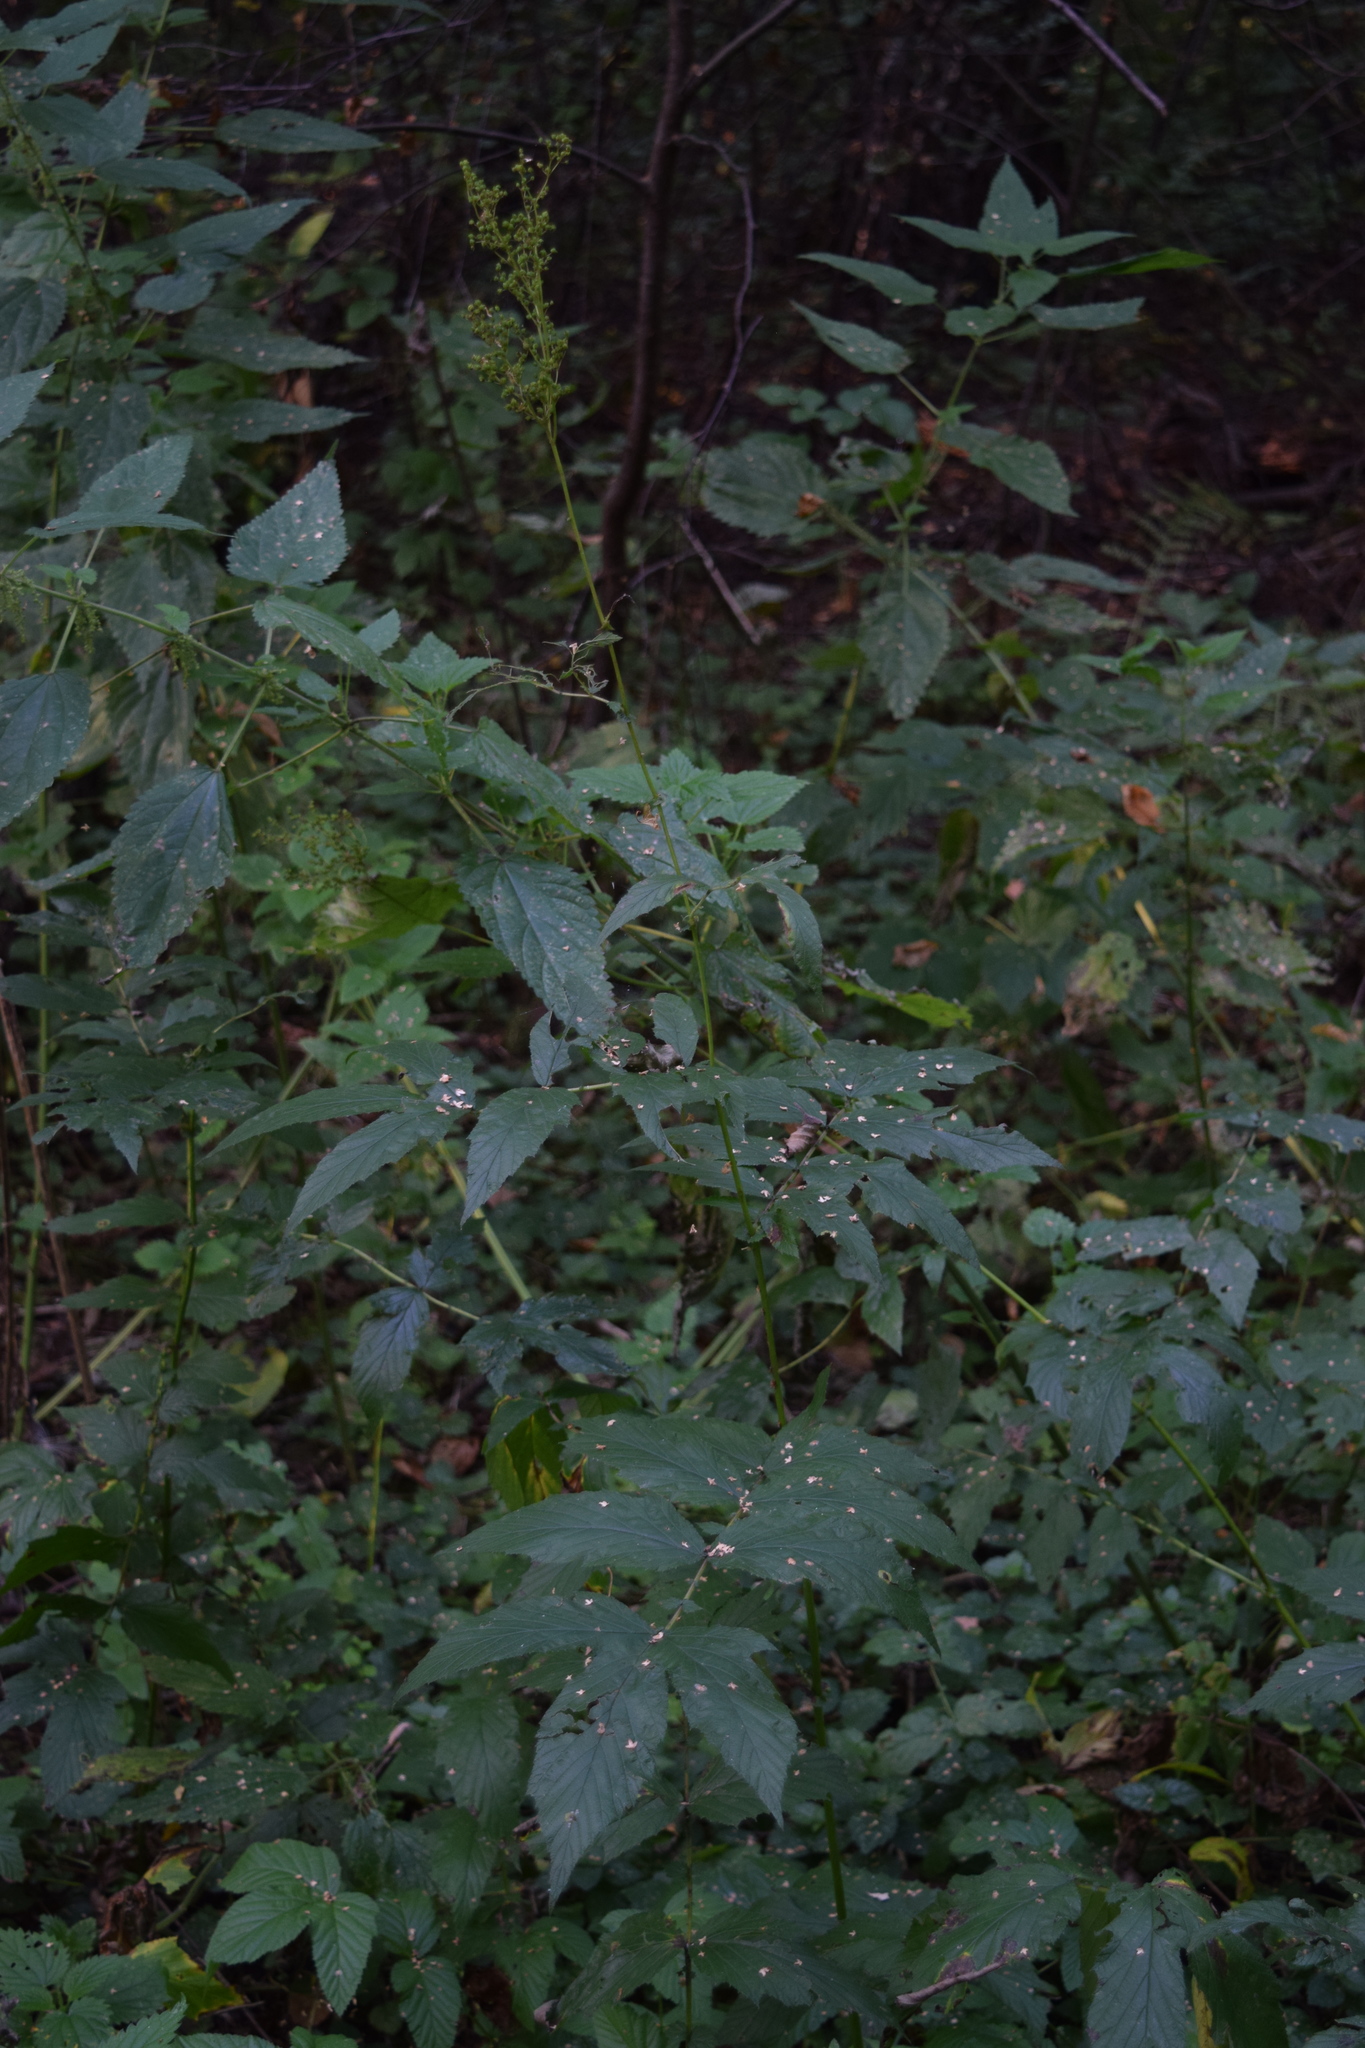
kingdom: Plantae
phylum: Tracheophyta
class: Magnoliopsida
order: Rosales
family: Rosaceae
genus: Filipendula
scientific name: Filipendula ulmaria
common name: Meadowsweet
